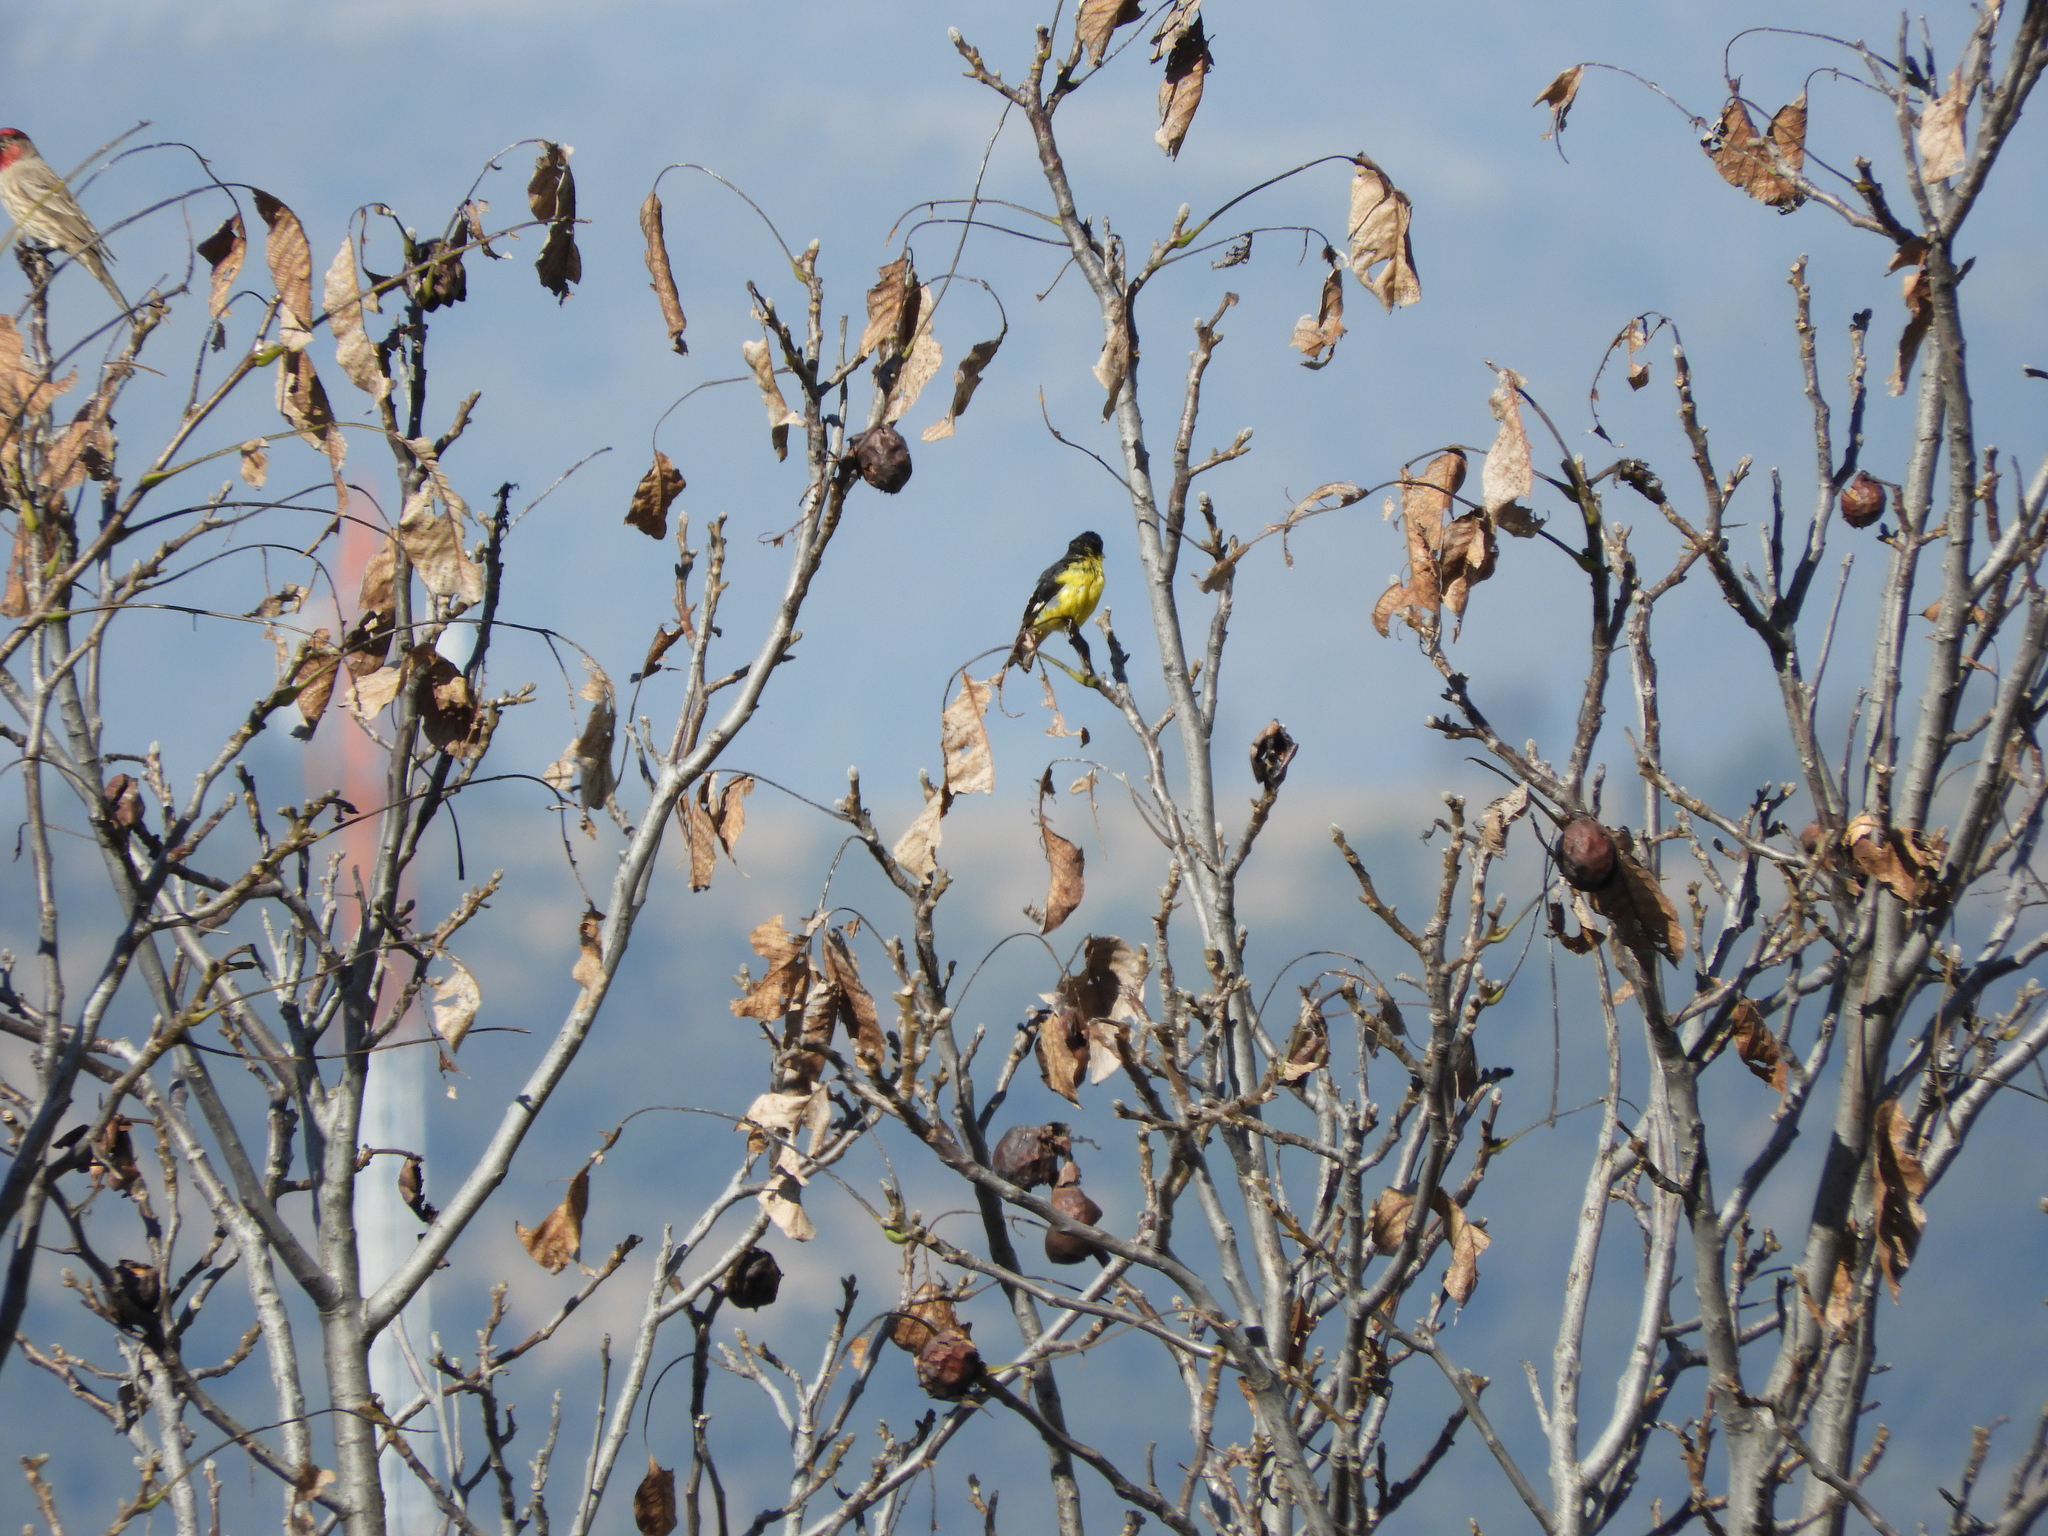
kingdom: Animalia
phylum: Chordata
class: Aves
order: Passeriformes
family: Fringillidae
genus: Spinus
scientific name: Spinus psaltria
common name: Lesser goldfinch
